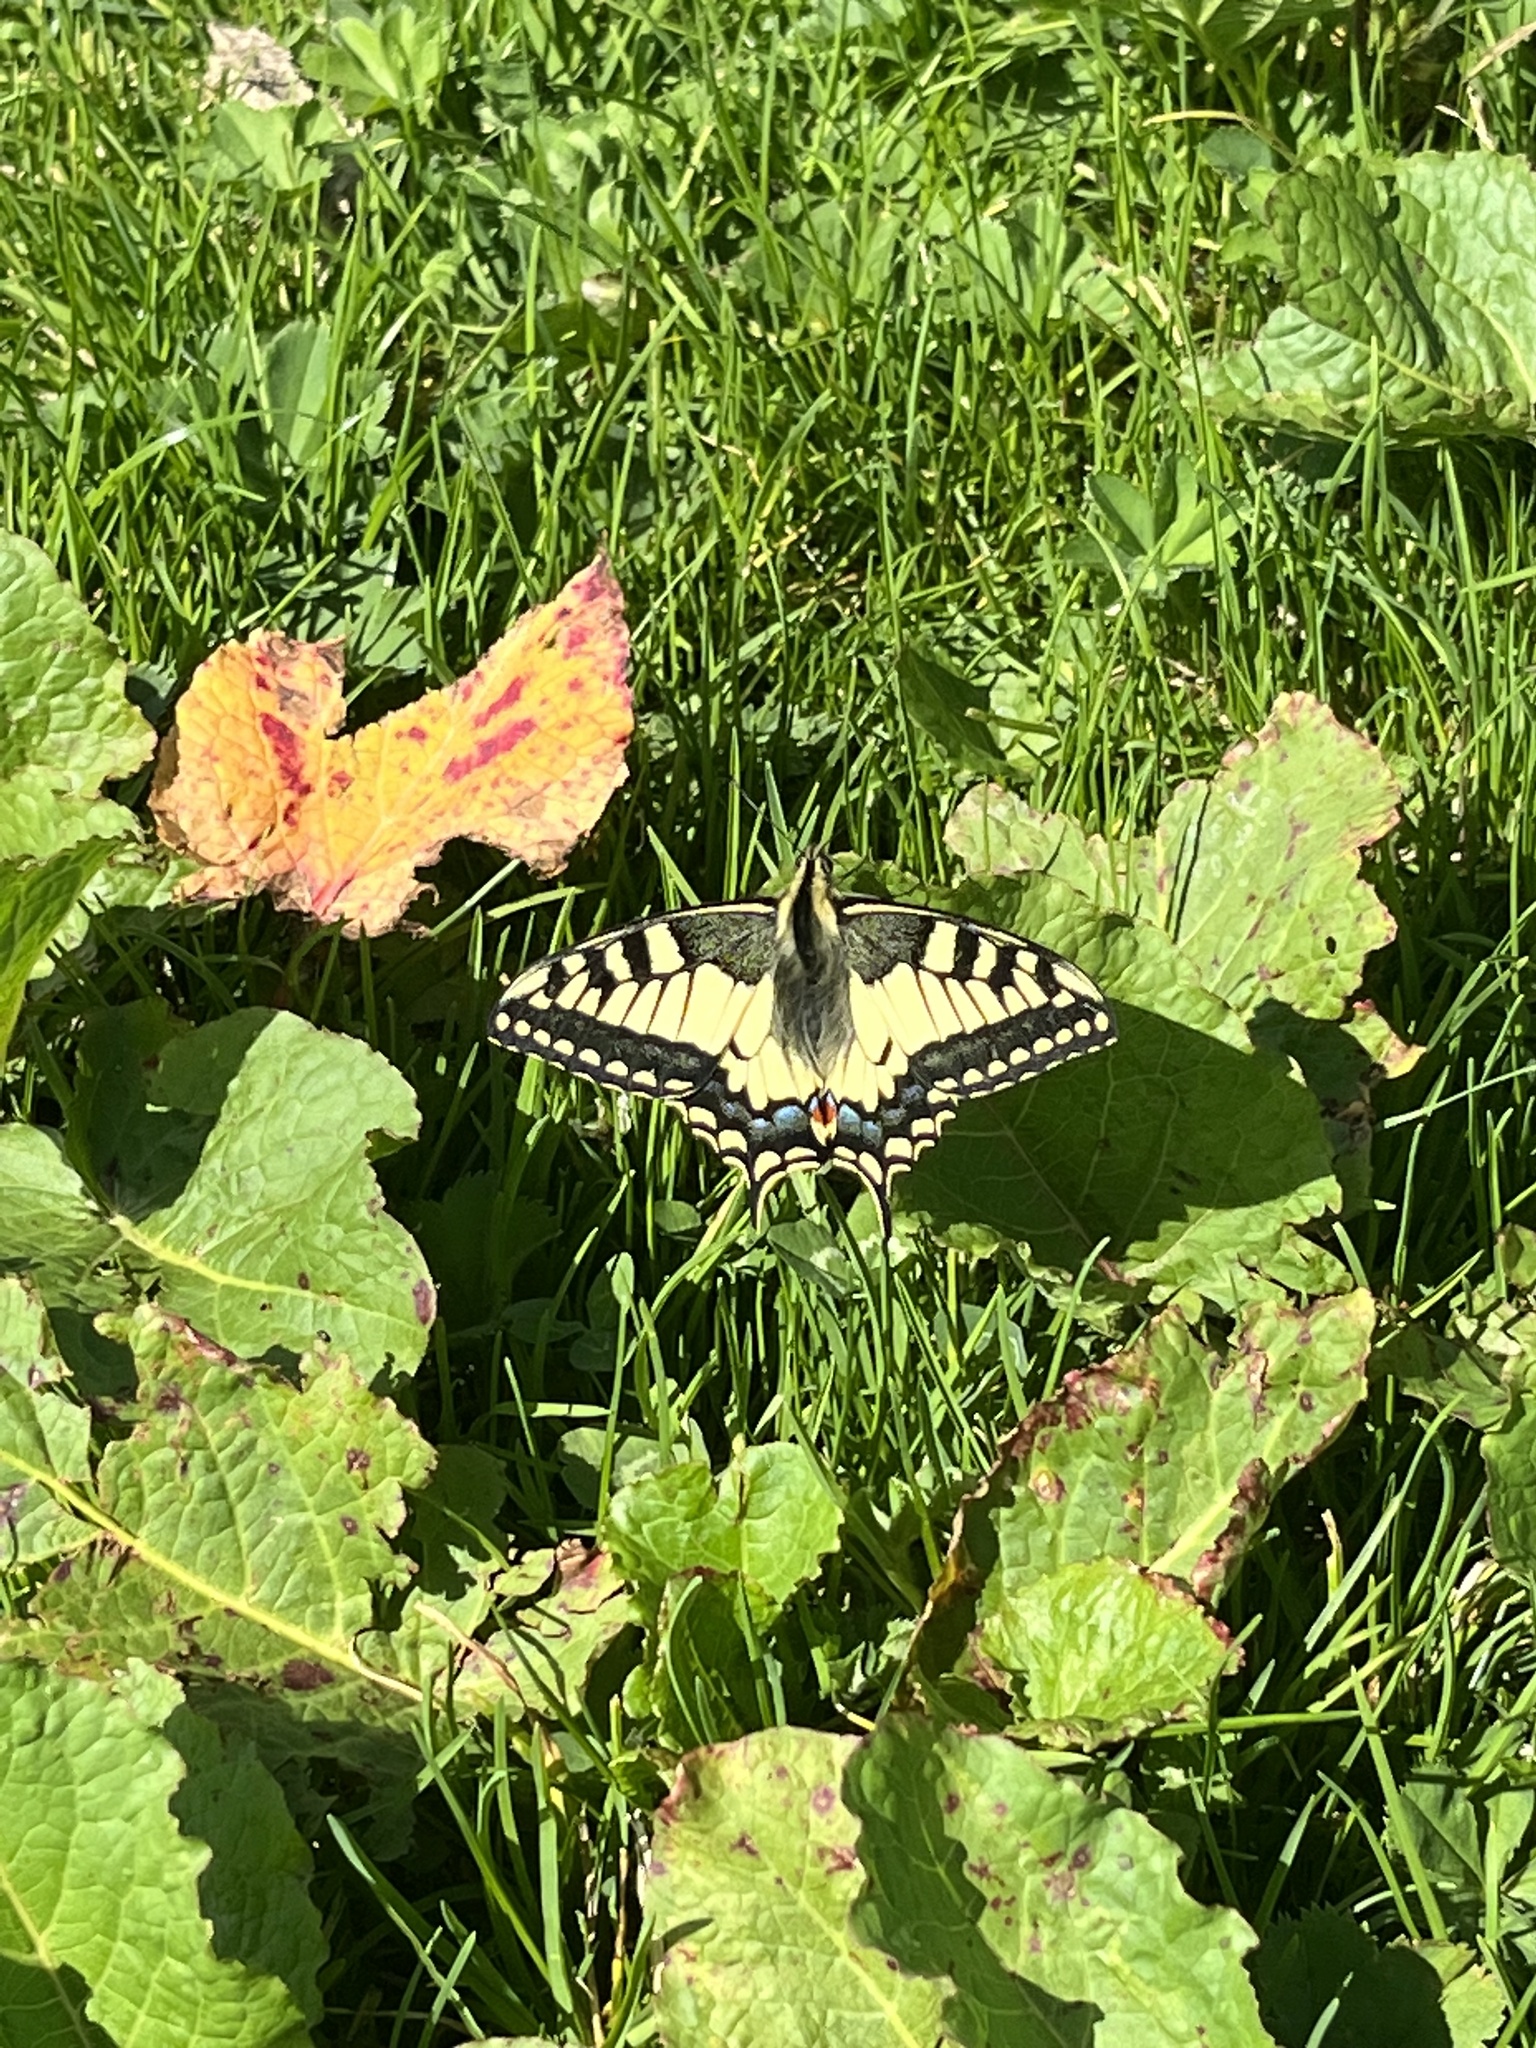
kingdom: Animalia
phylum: Arthropoda
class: Insecta
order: Lepidoptera
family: Papilionidae
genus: Papilio
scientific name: Papilio machaon
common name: Swallowtail
